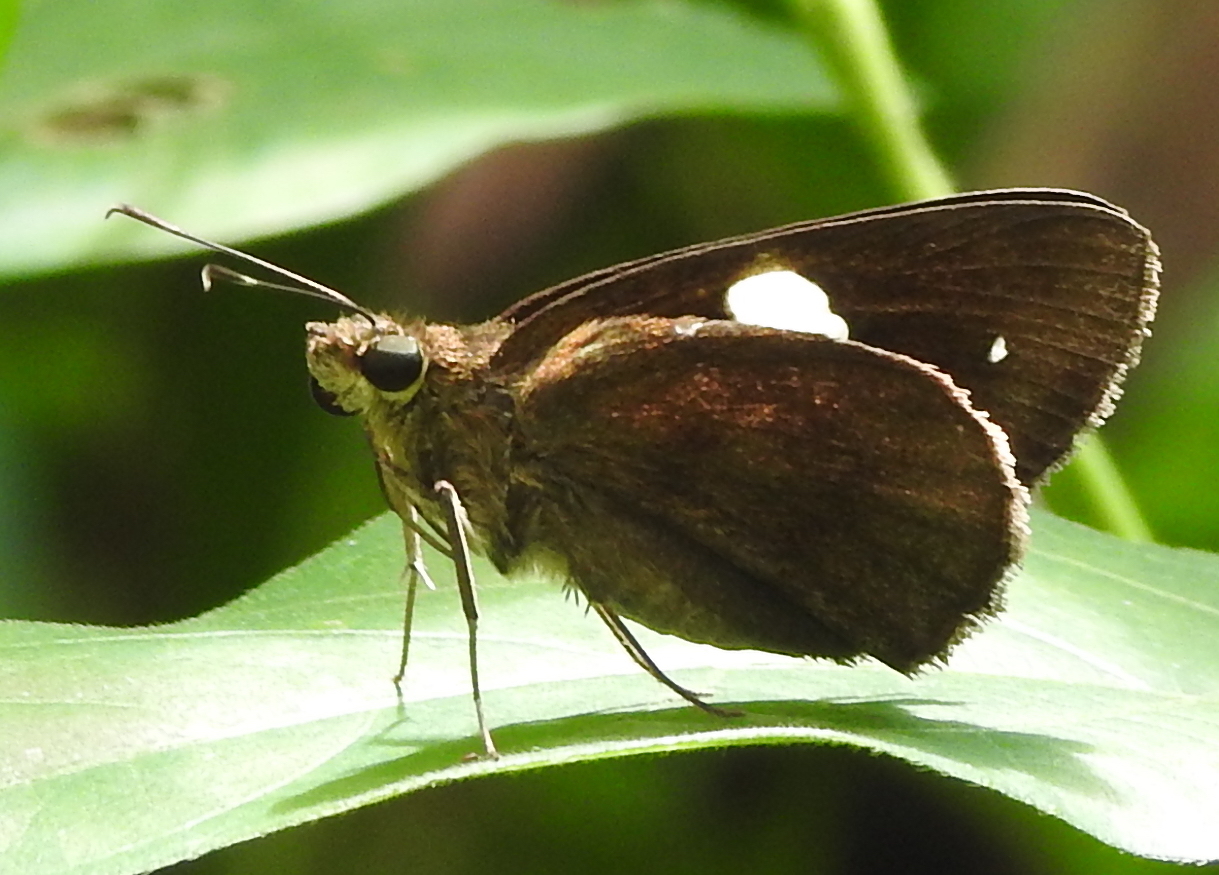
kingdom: Animalia
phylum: Arthropoda
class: Insecta
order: Lepidoptera
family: Hesperiidae
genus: Notocrypta
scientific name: Notocrypta paralysos
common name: Common banded demon
